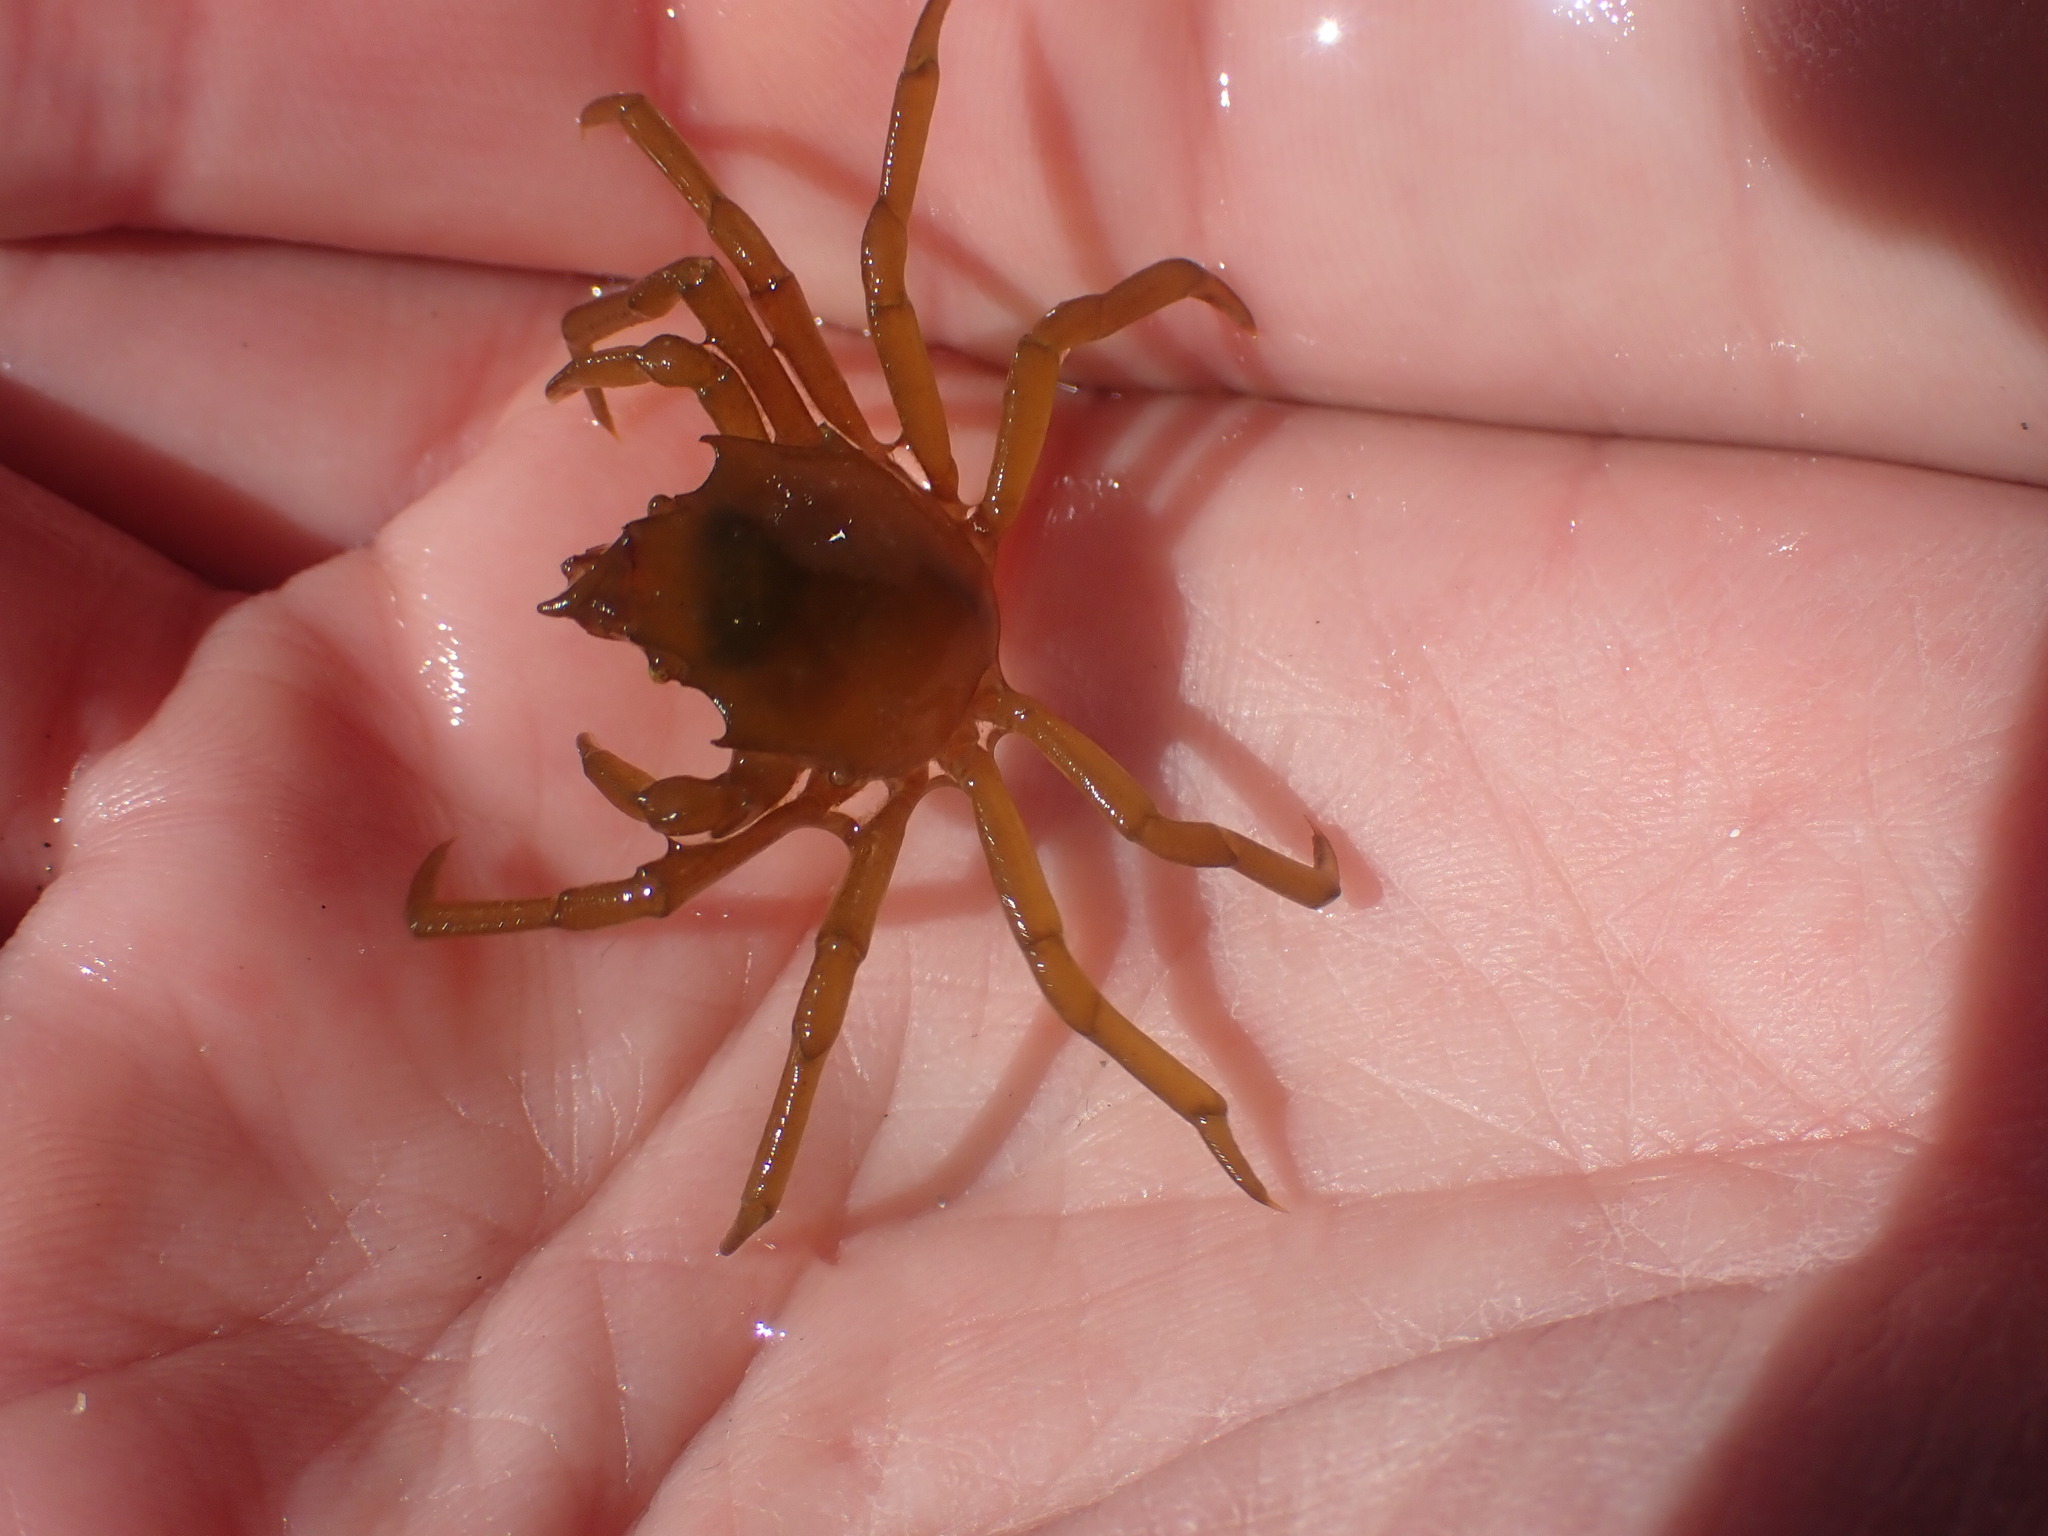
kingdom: Animalia
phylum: Arthropoda
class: Malacostraca
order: Decapoda
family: Epialtidae
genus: Pugettia
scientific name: Pugettia producta
